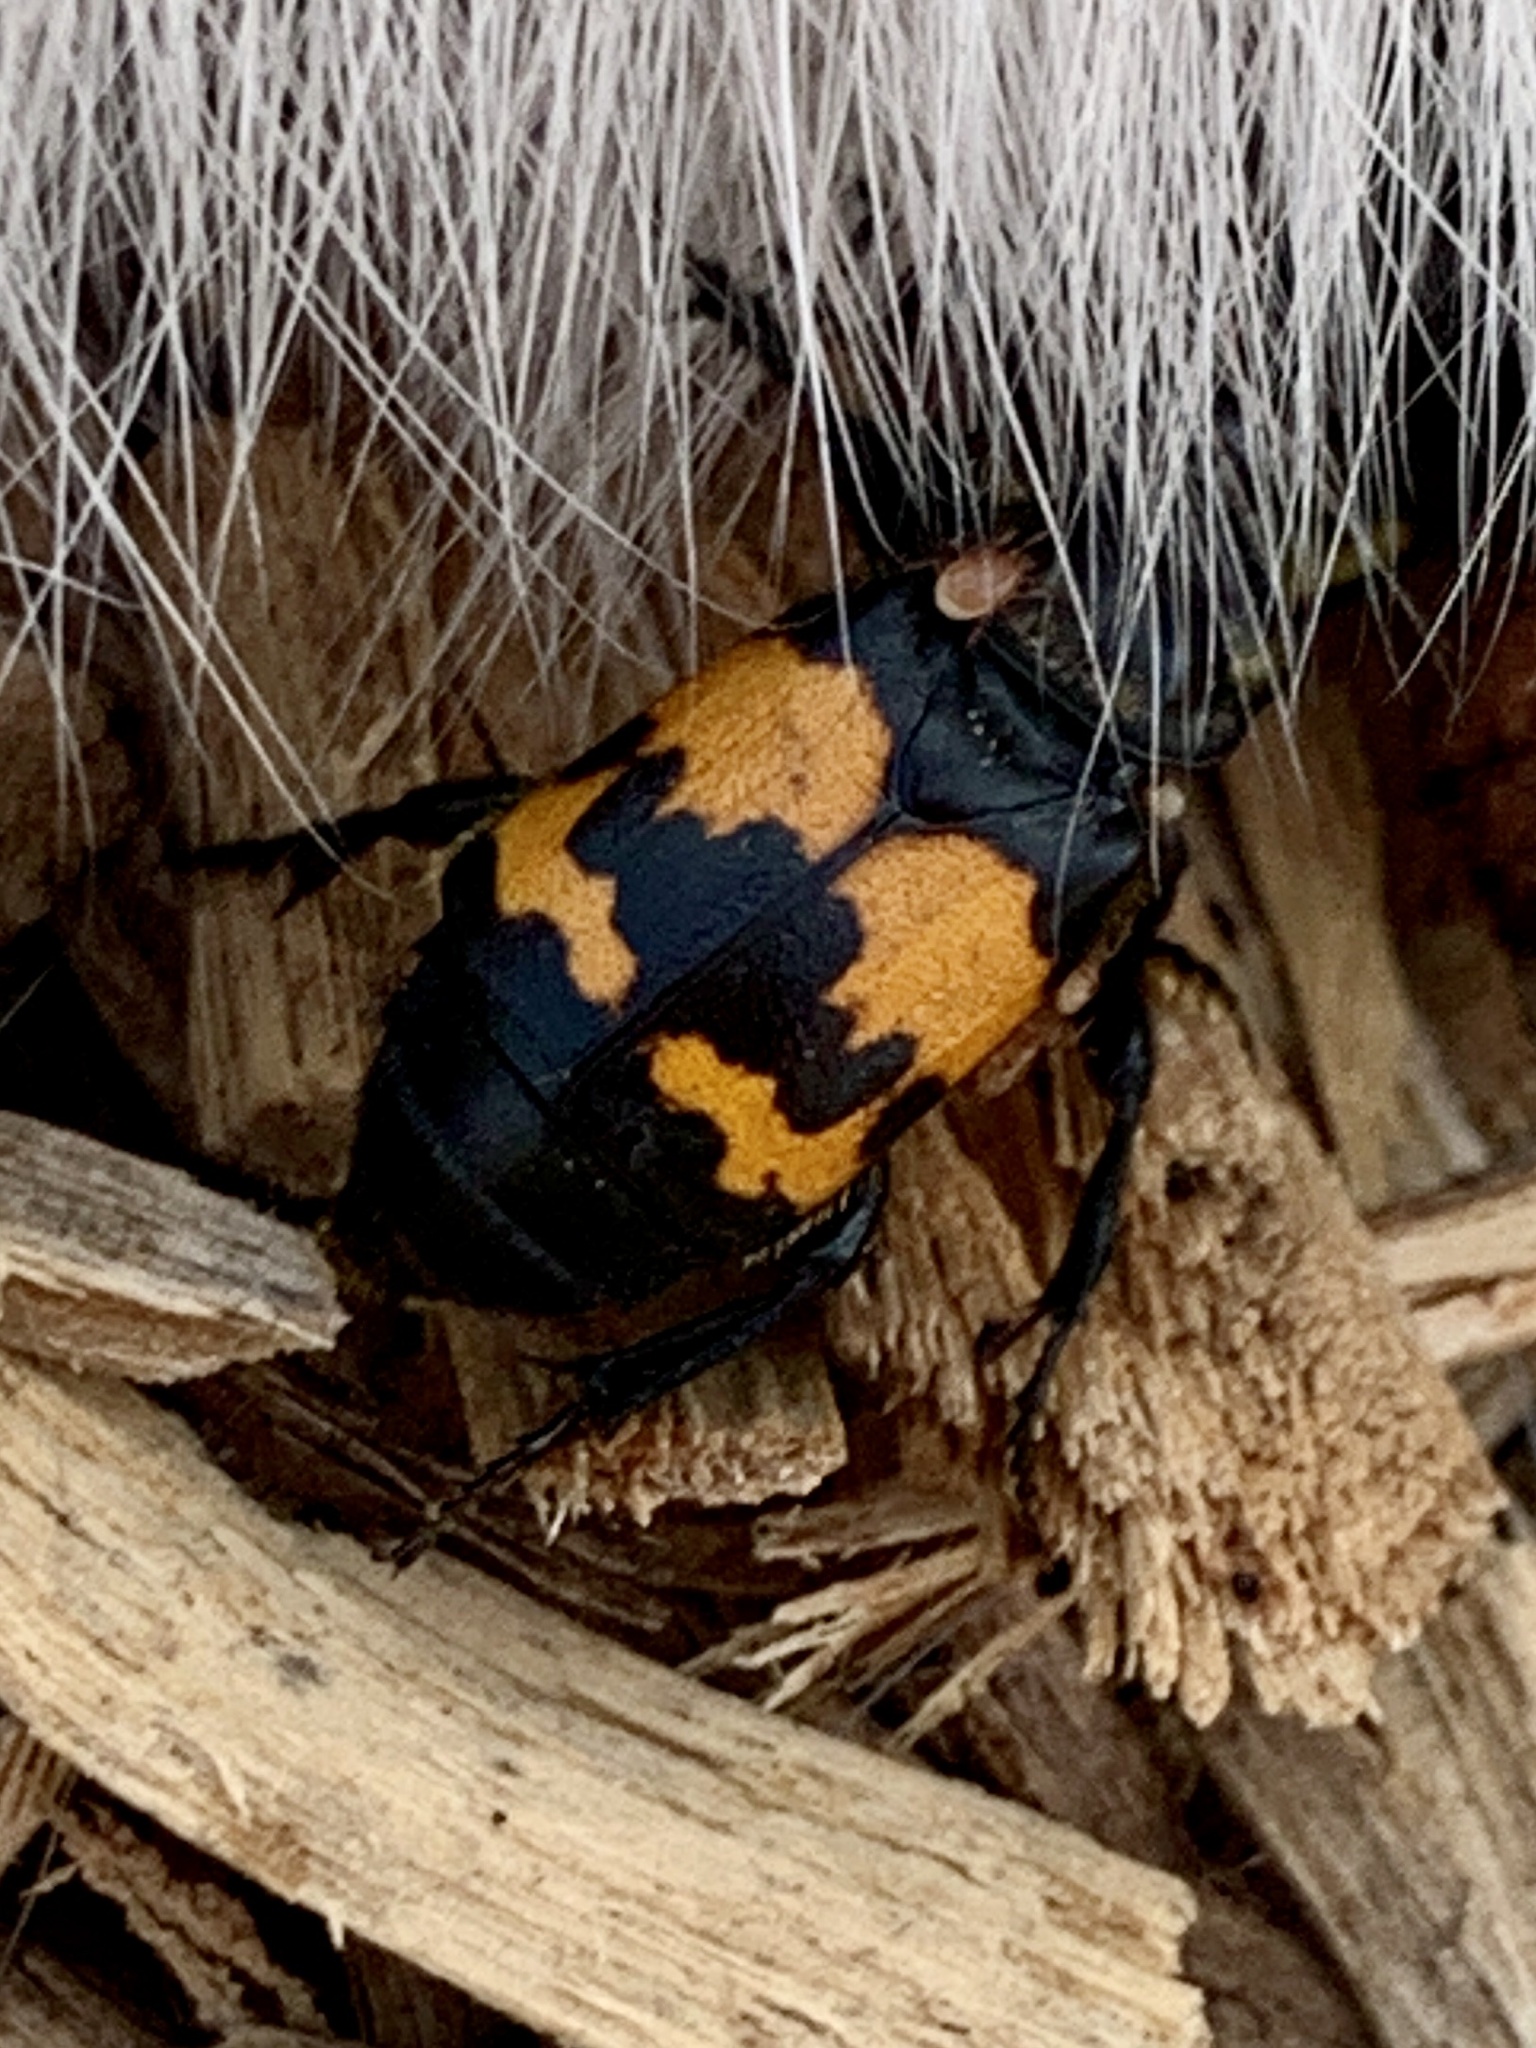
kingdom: Animalia
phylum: Arthropoda
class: Insecta
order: Coleoptera
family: Staphylinidae
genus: Nicrophorus
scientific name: Nicrophorus tomentosus
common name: Tomentose burying beetle
